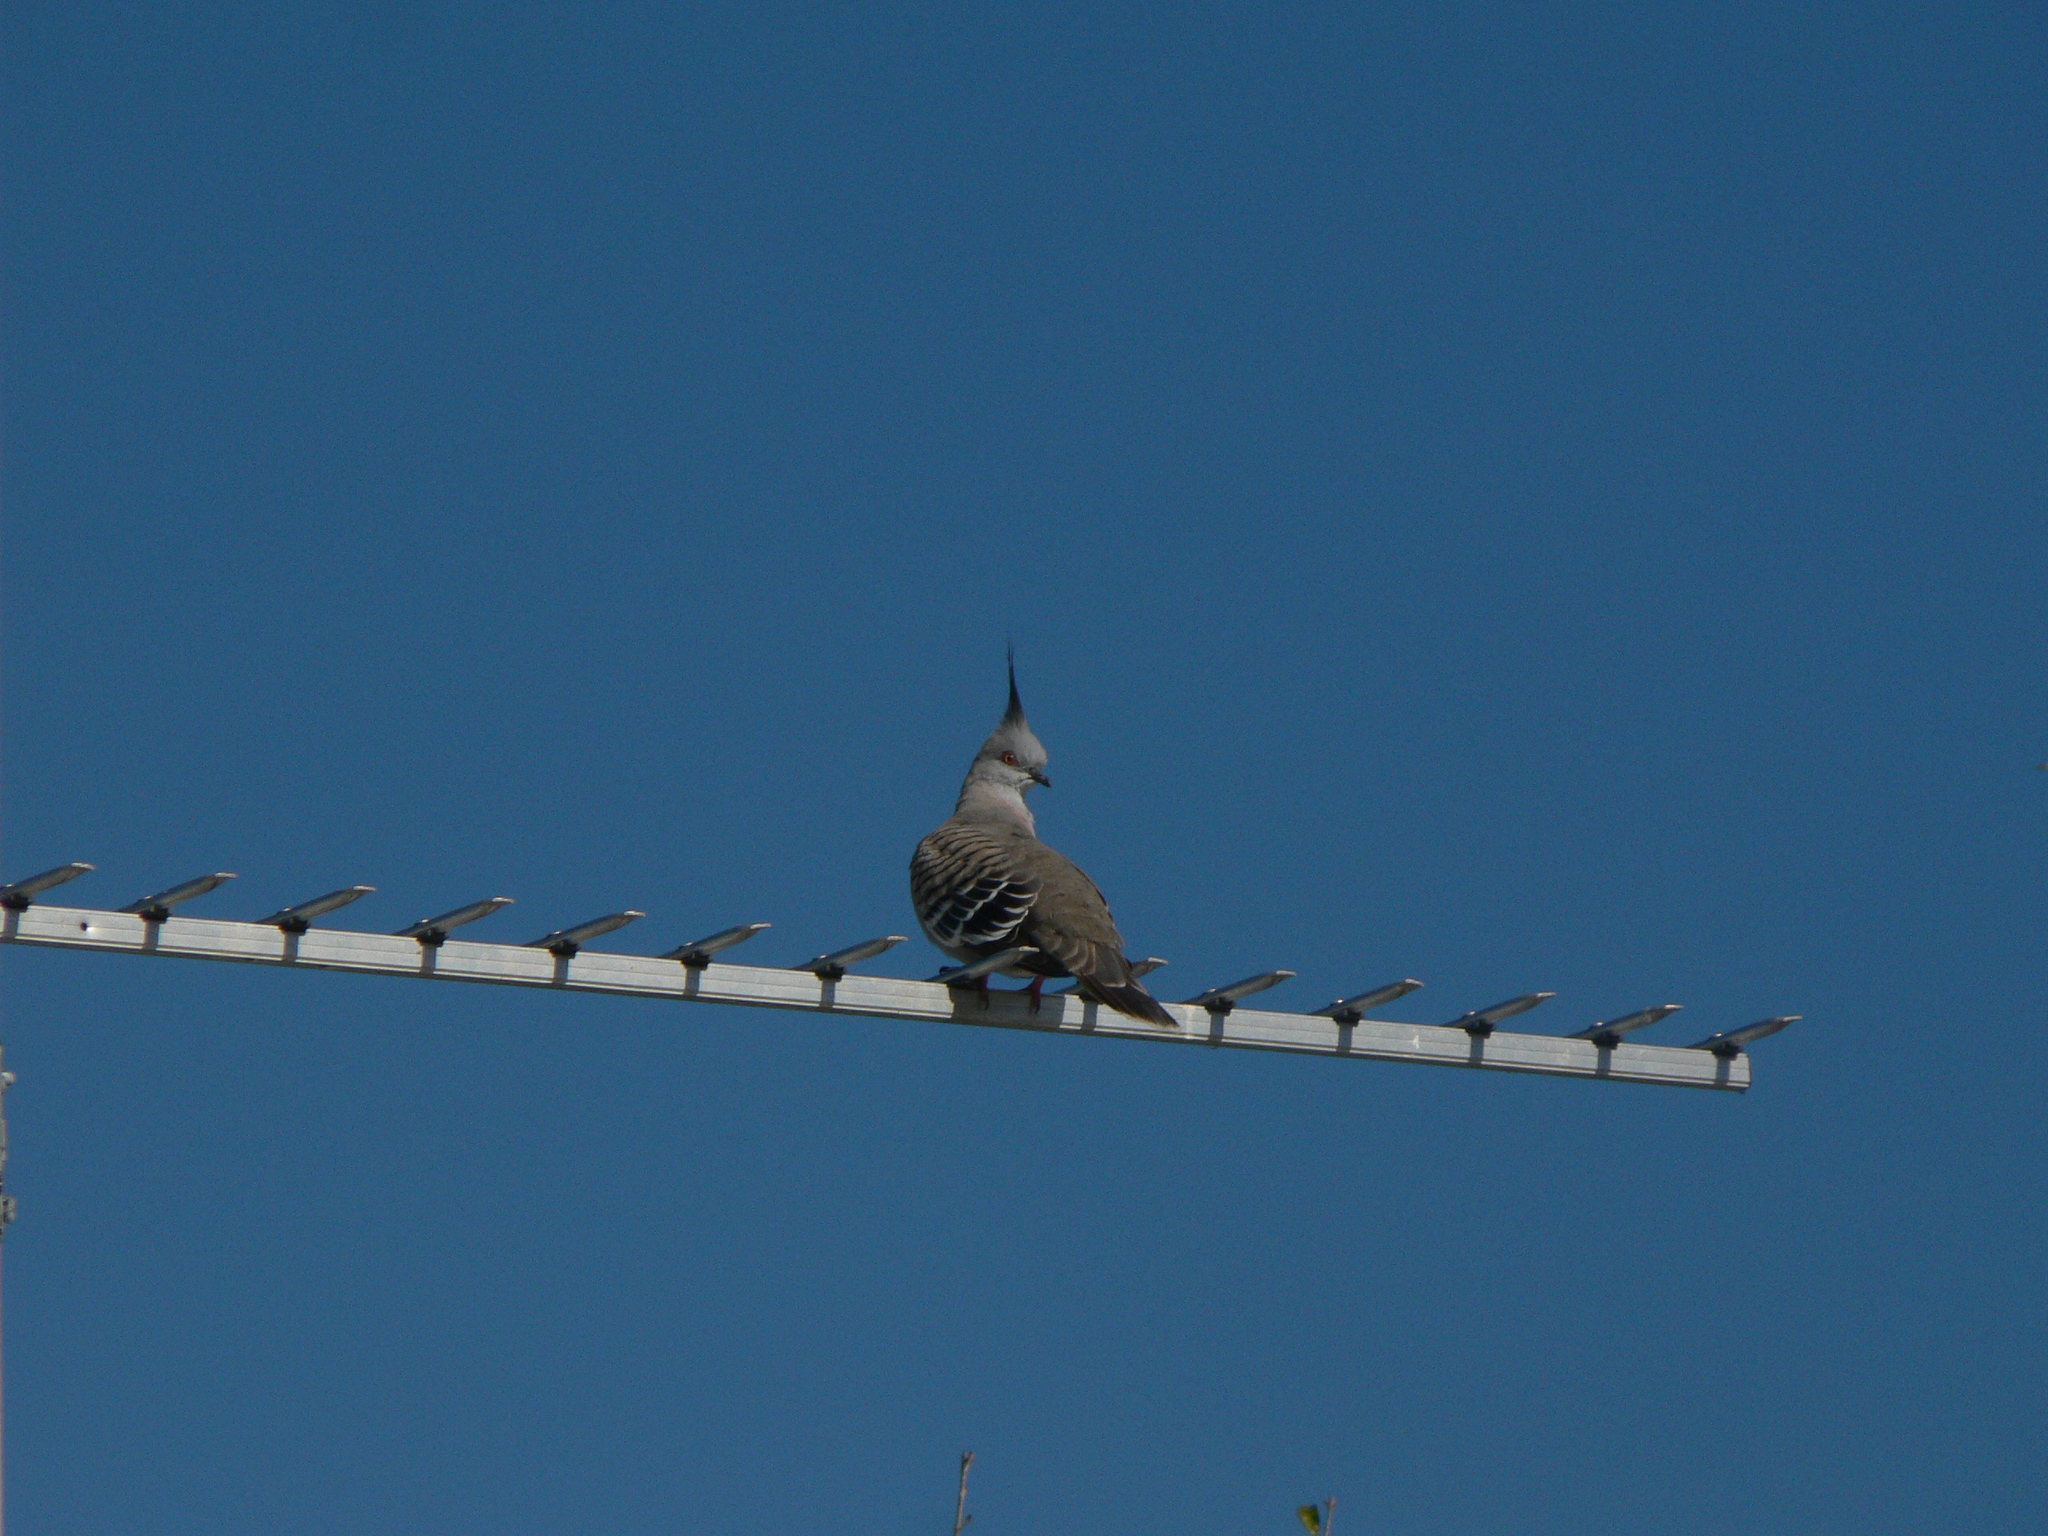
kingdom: Animalia
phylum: Chordata
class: Aves
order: Columbiformes
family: Columbidae
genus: Ocyphaps
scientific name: Ocyphaps lophotes
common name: Crested pigeon
